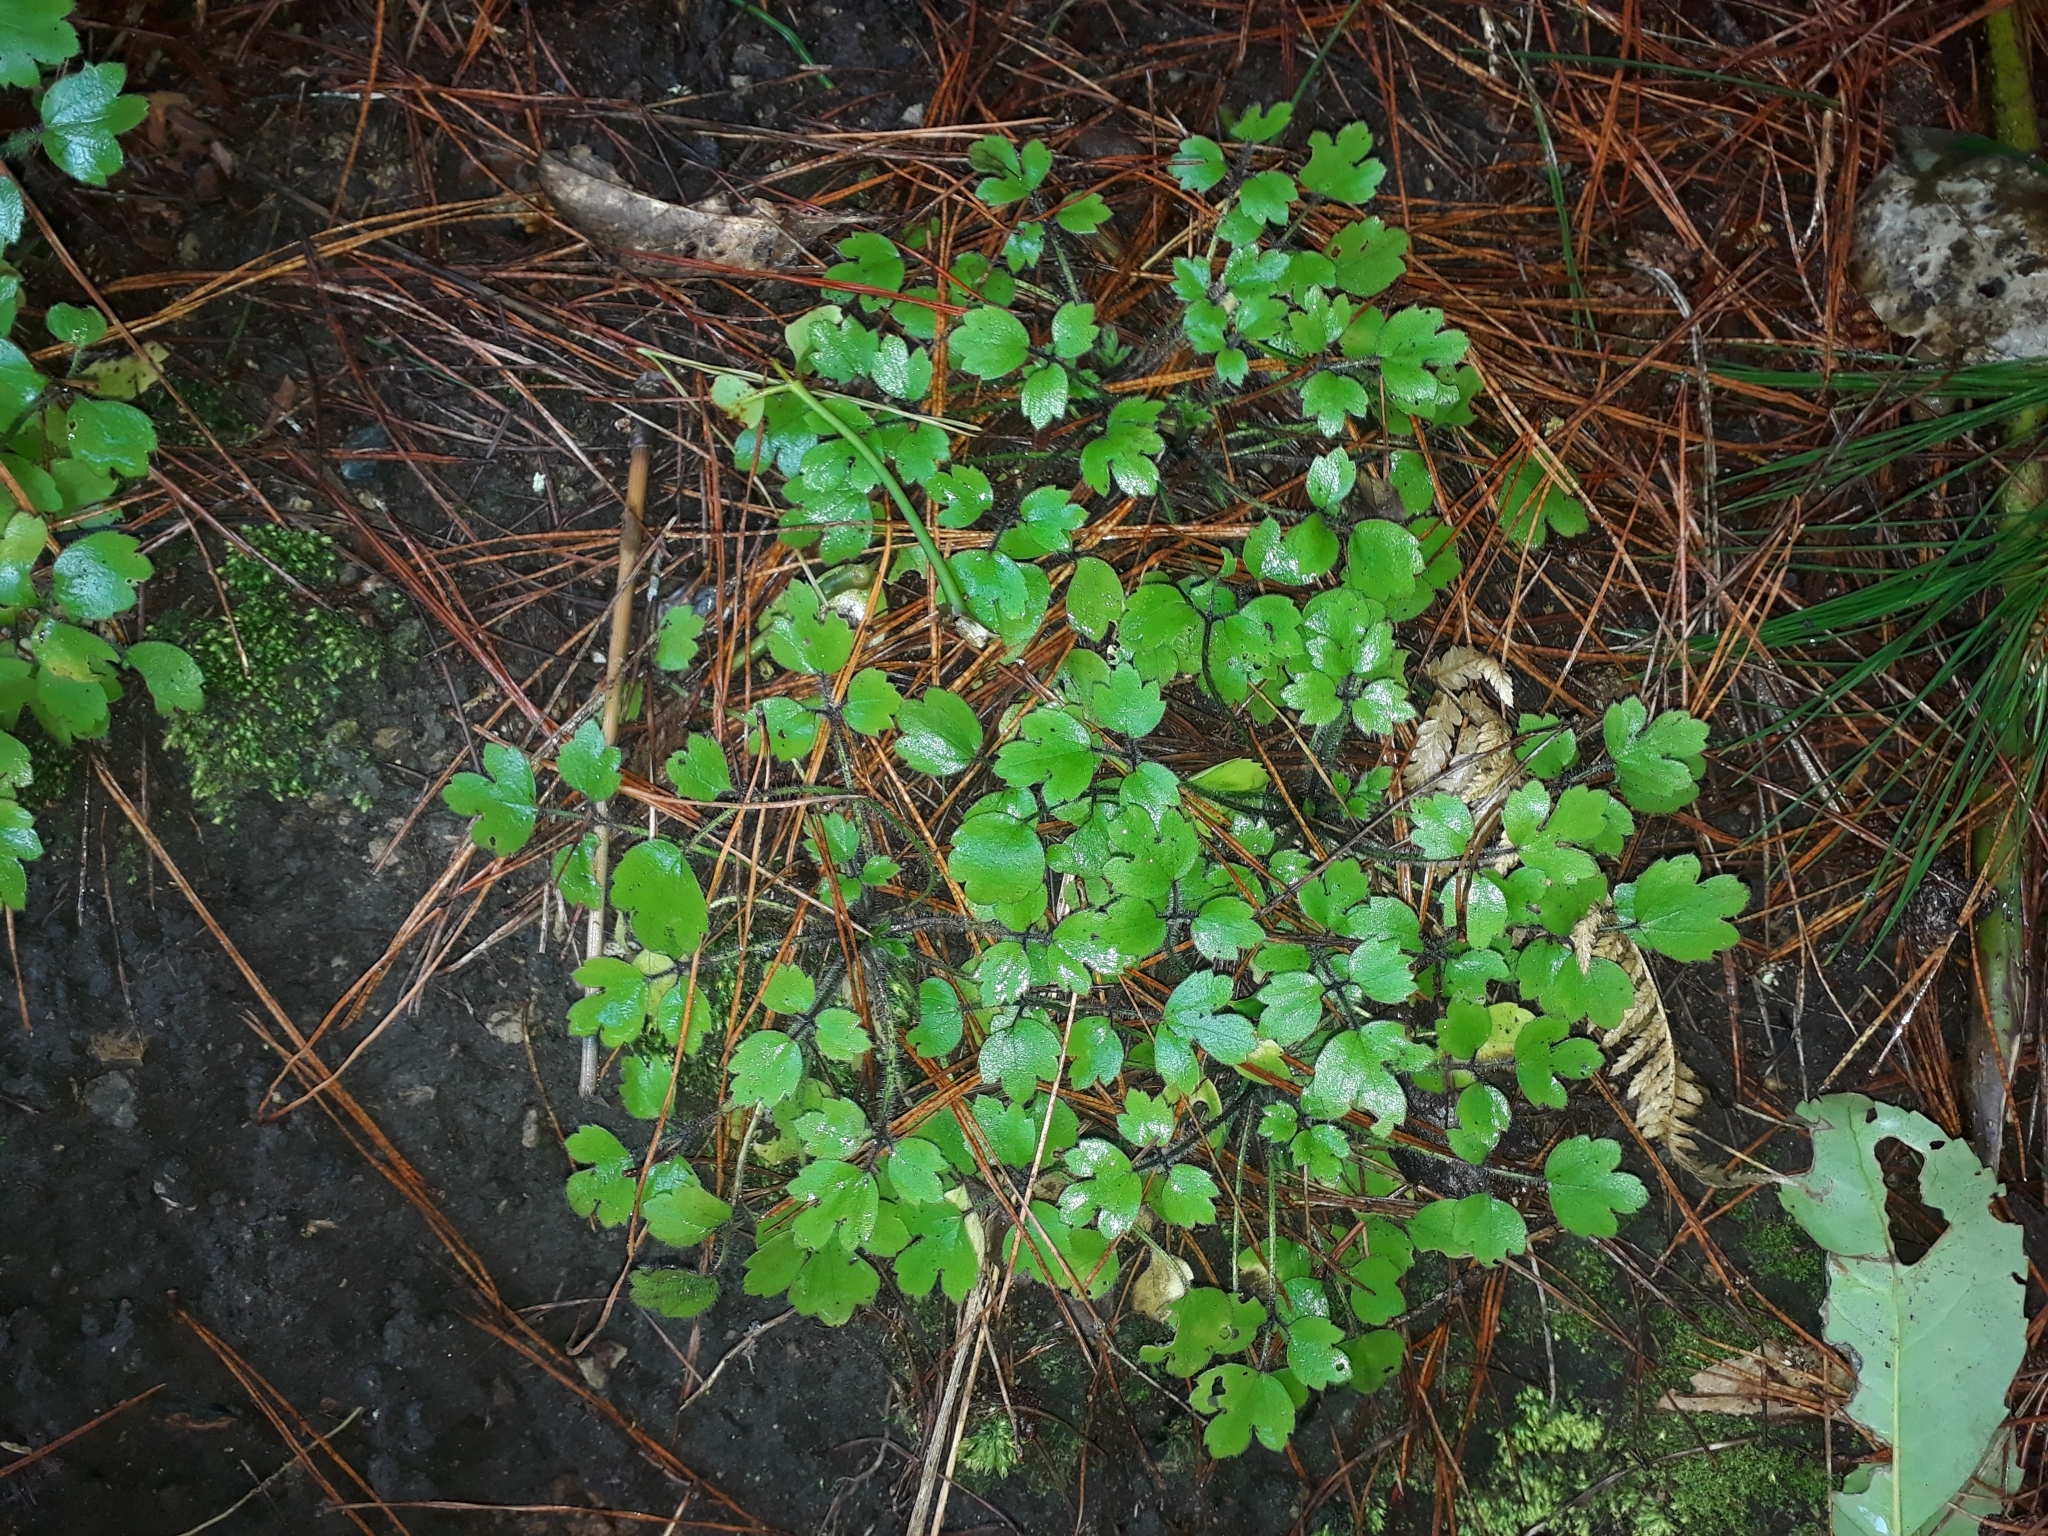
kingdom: Plantae
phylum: Tracheophyta
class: Magnoliopsida
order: Ranunculales
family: Ranunculaceae
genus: Ranunculus
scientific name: Ranunculus reflexus
